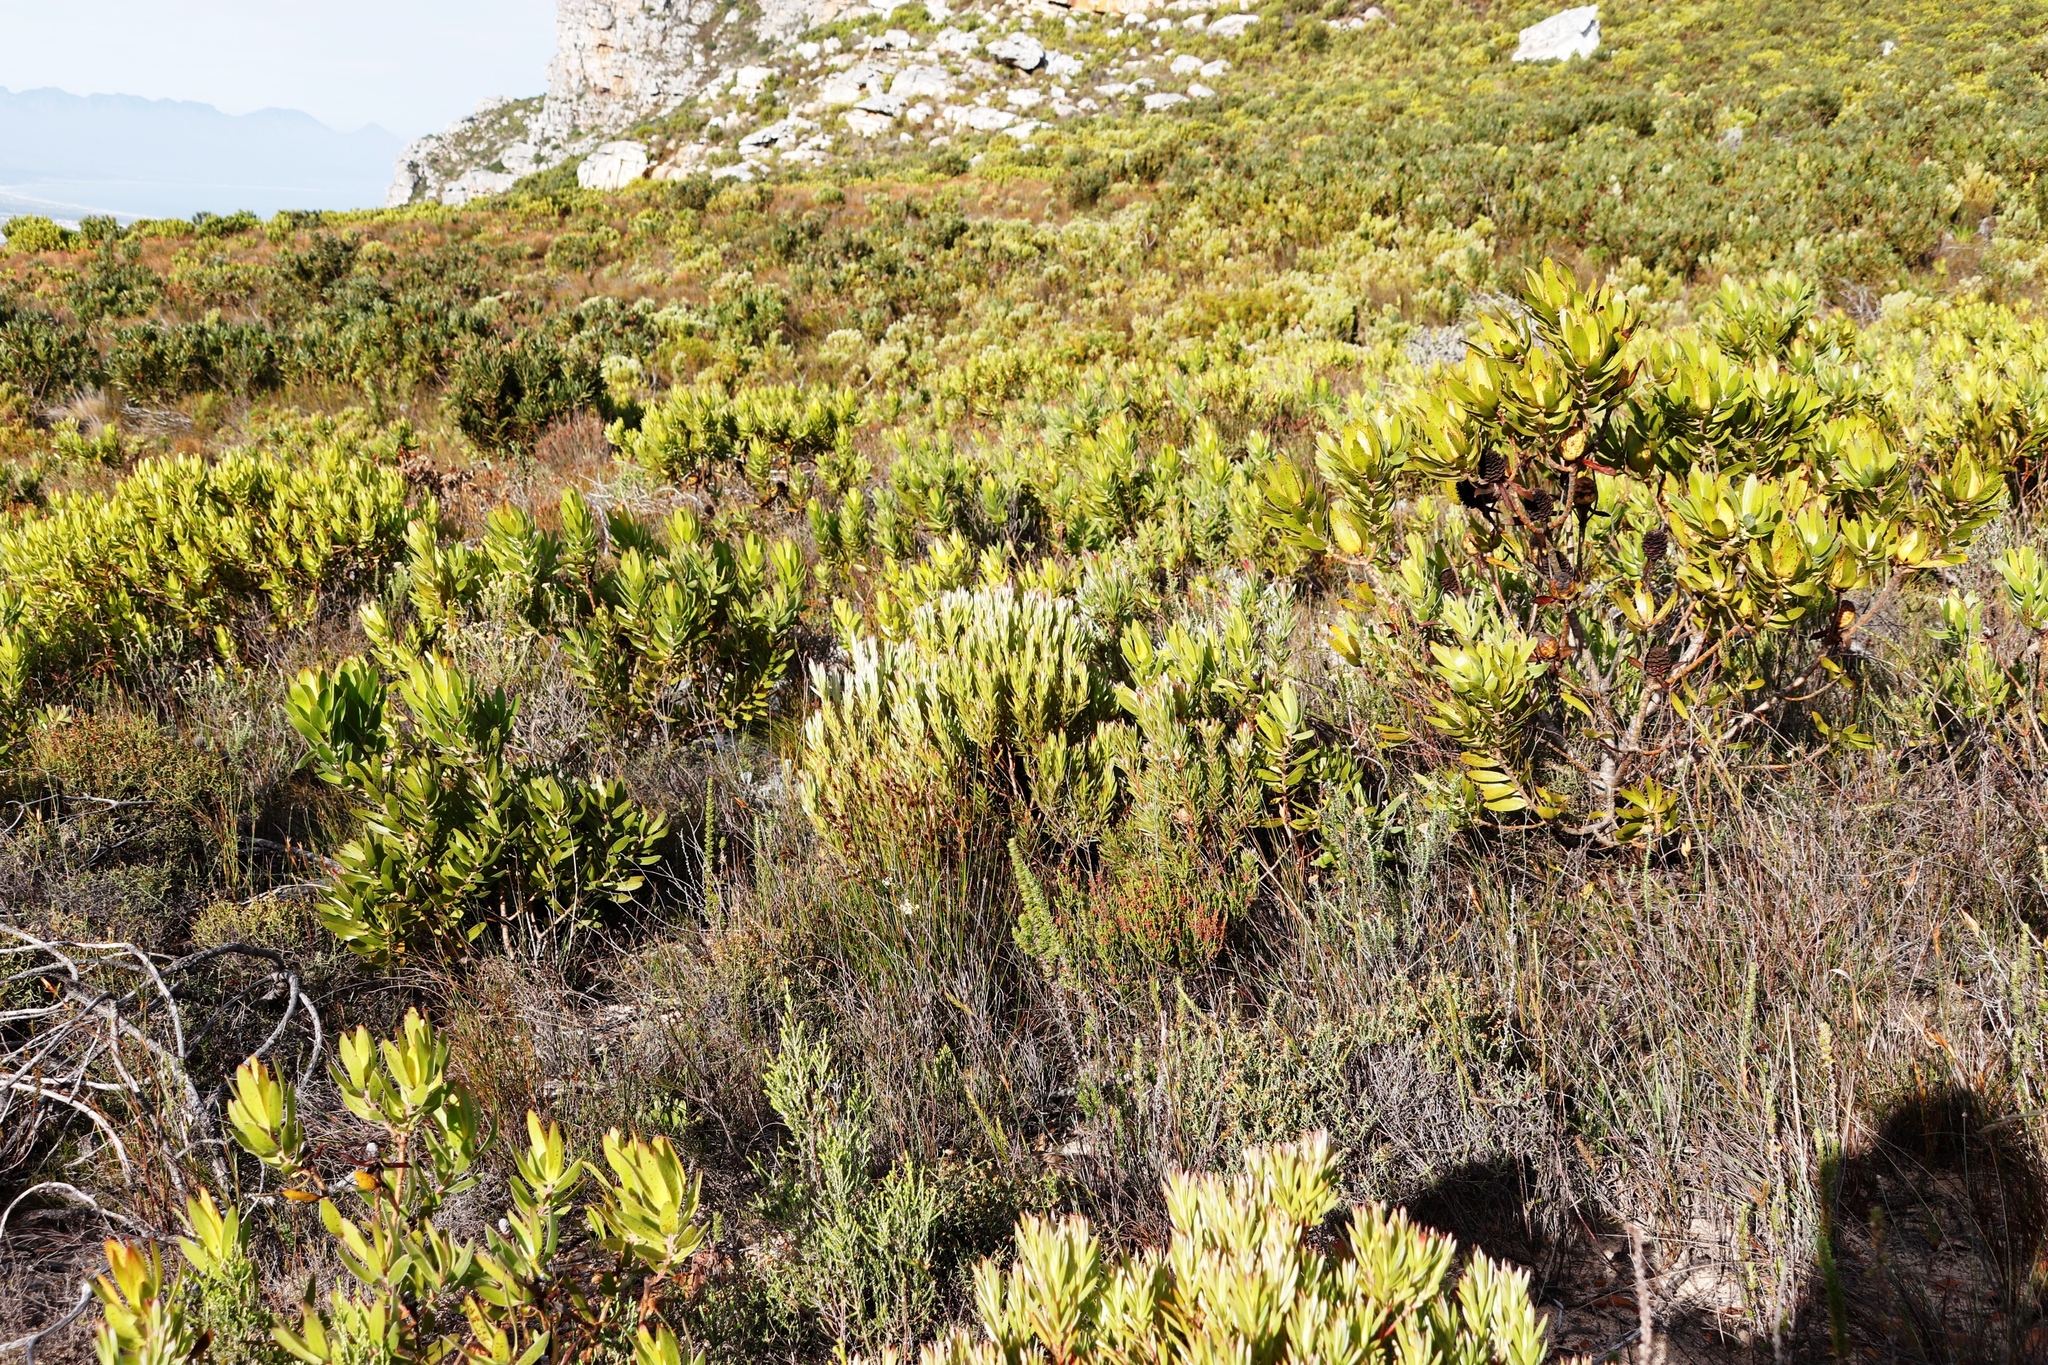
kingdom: Plantae
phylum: Tracheophyta
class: Magnoliopsida
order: Proteales
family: Proteaceae
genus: Leucadendron
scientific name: Leucadendron laureolum
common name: Golden sunshinebush
